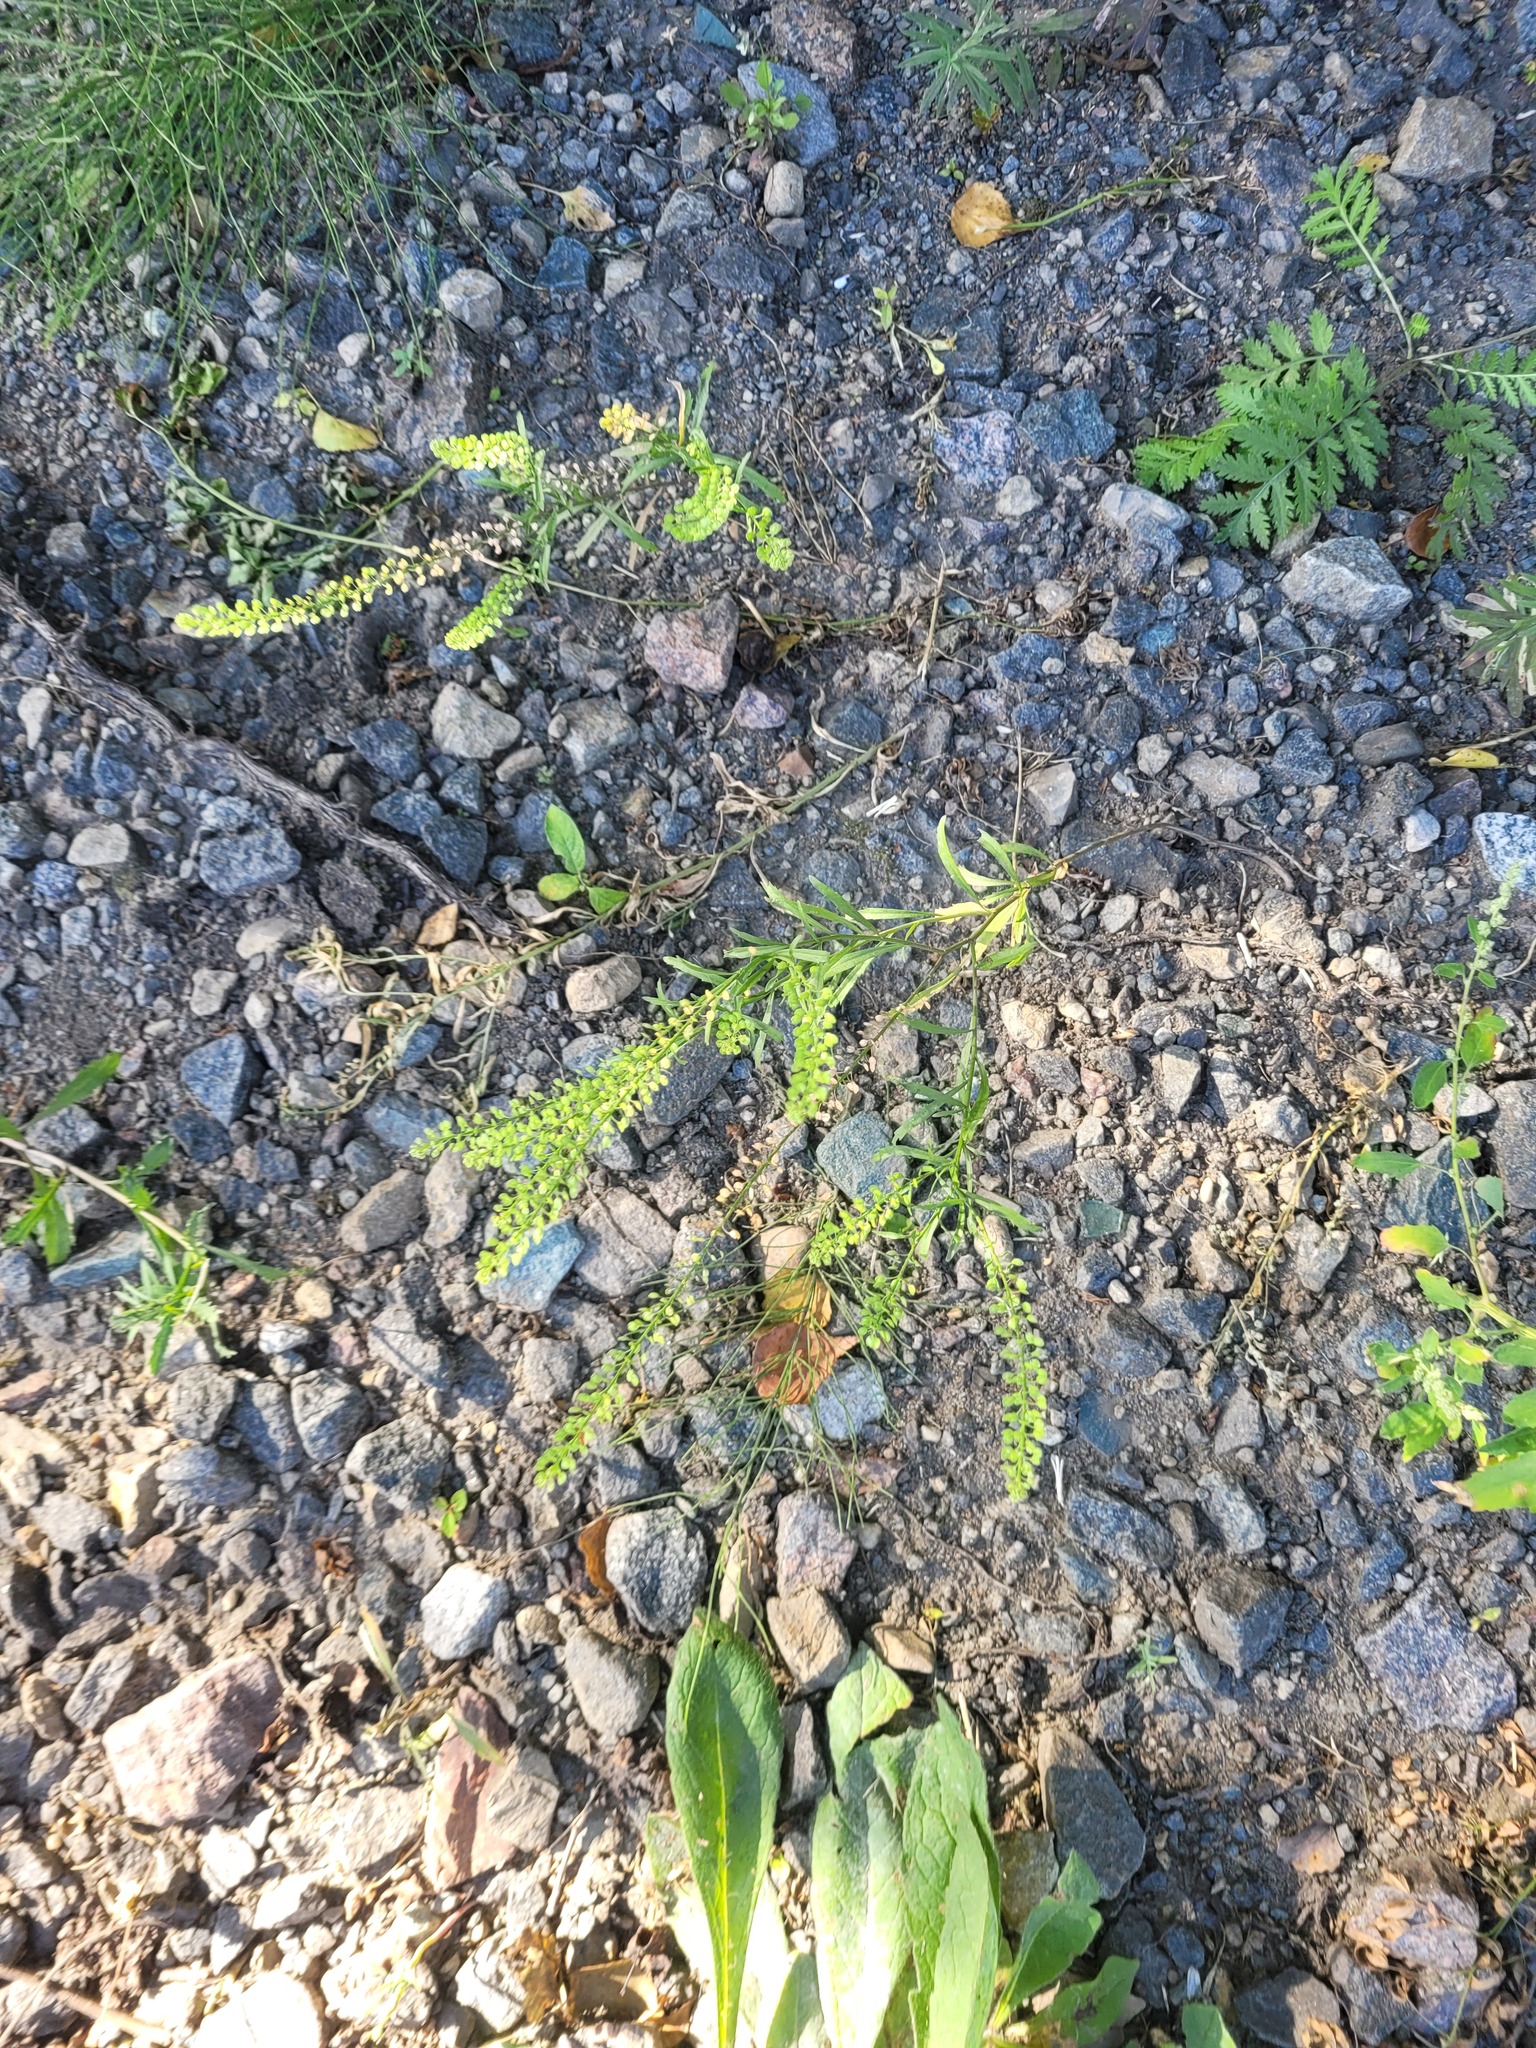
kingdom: Plantae
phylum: Tracheophyta
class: Magnoliopsida
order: Brassicales
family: Brassicaceae
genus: Lepidium
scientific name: Lepidium densiflorum
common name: Miner's pepperwort
